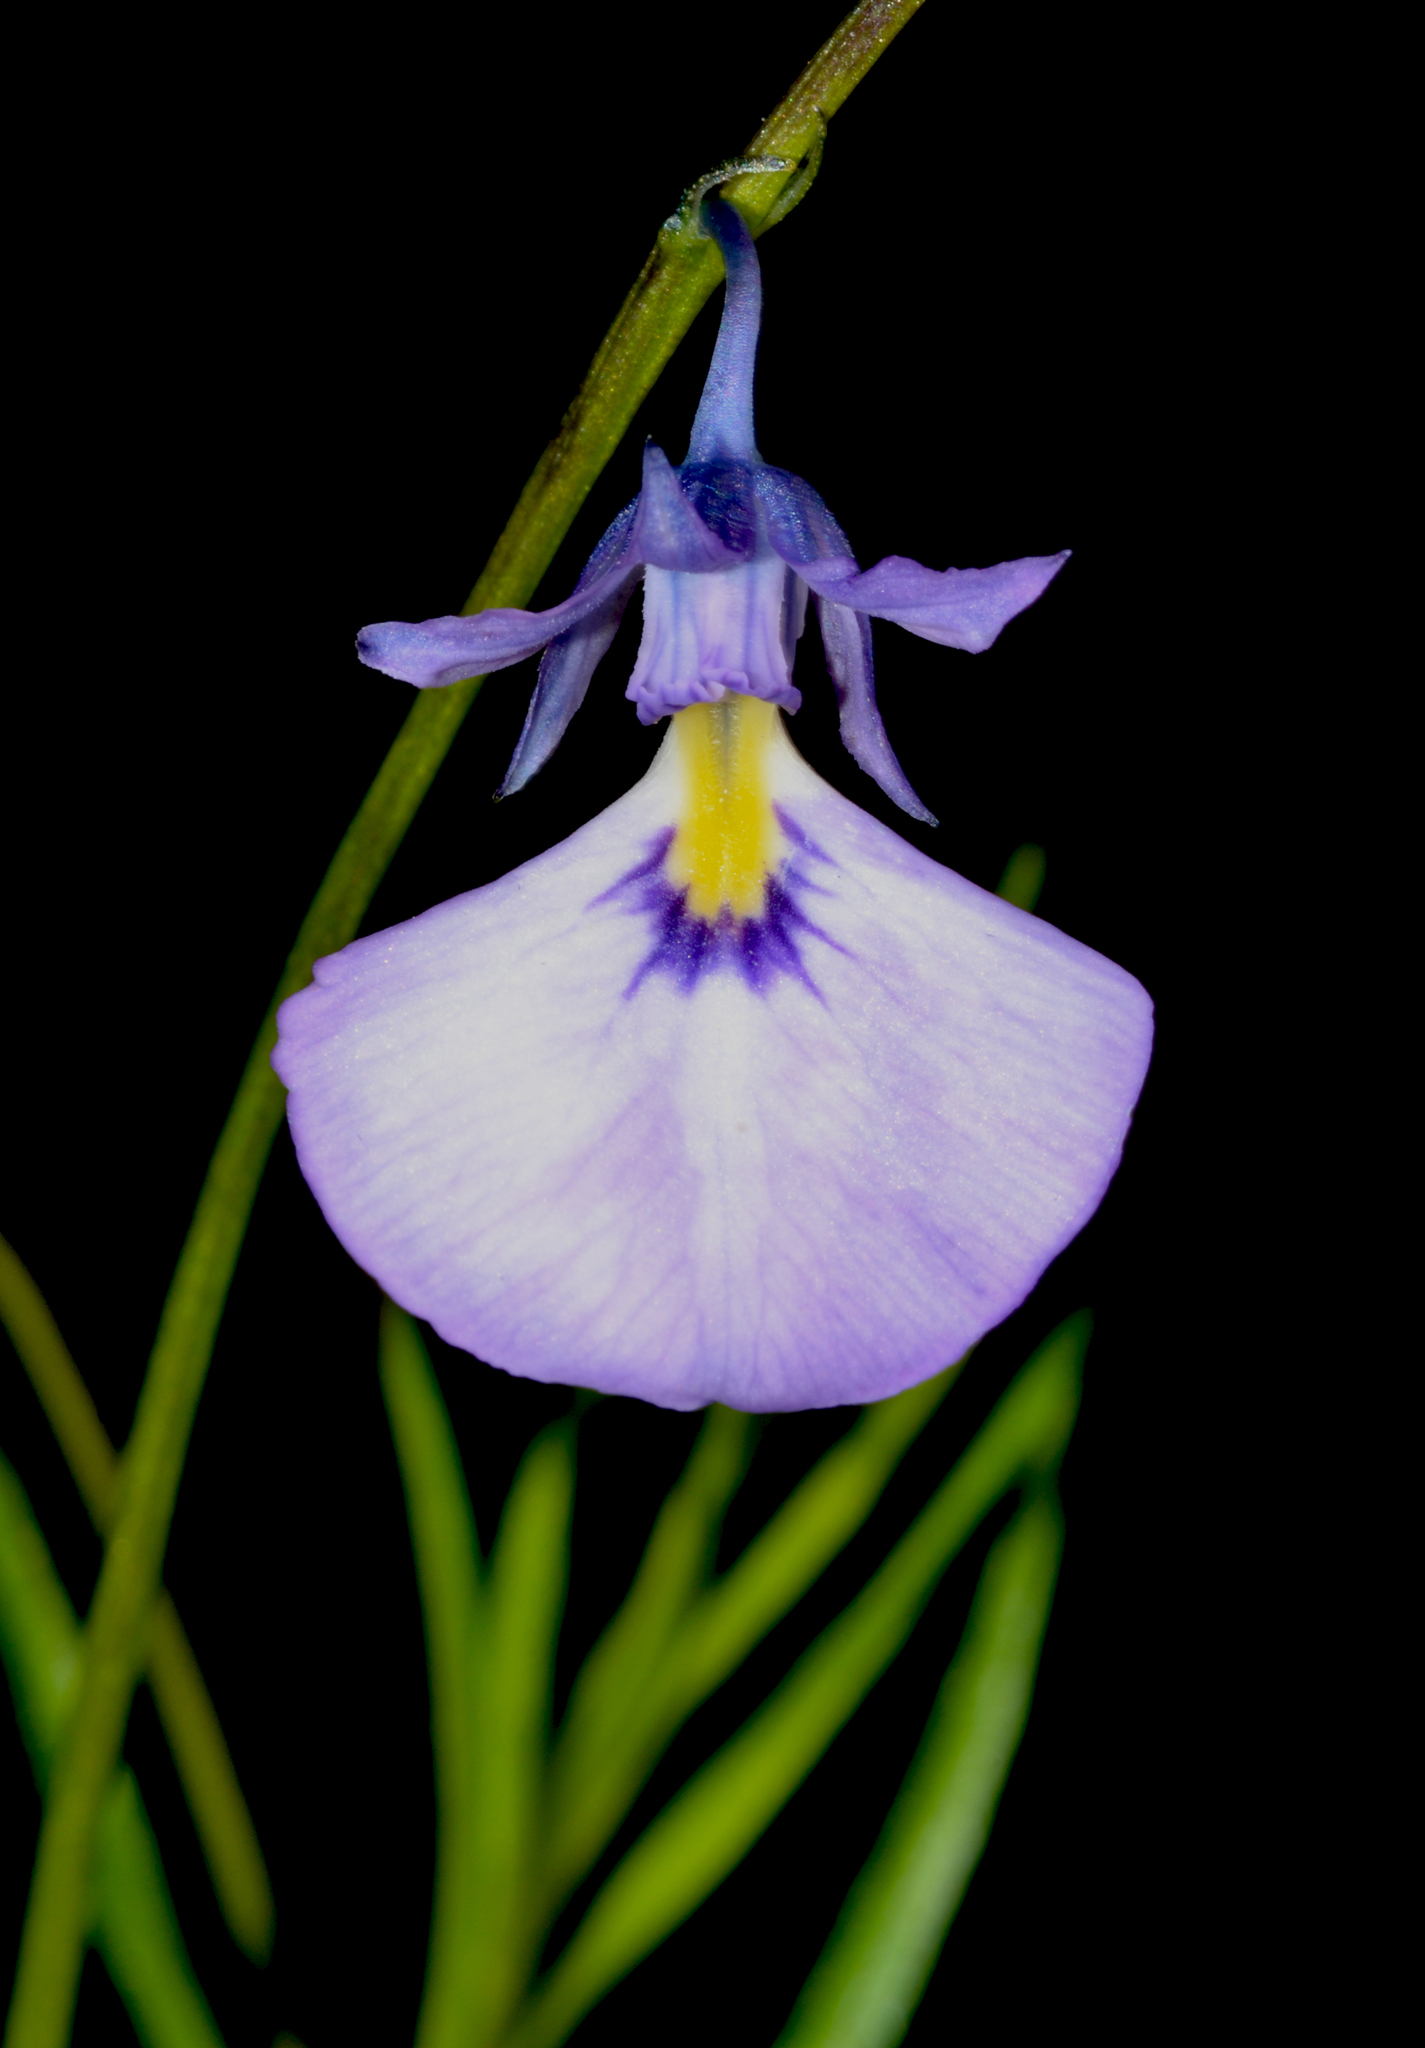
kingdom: Plantae
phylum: Tracheophyta
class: Magnoliopsida
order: Malpighiales
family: Violaceae
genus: Pigea
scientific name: Pigea calycina
